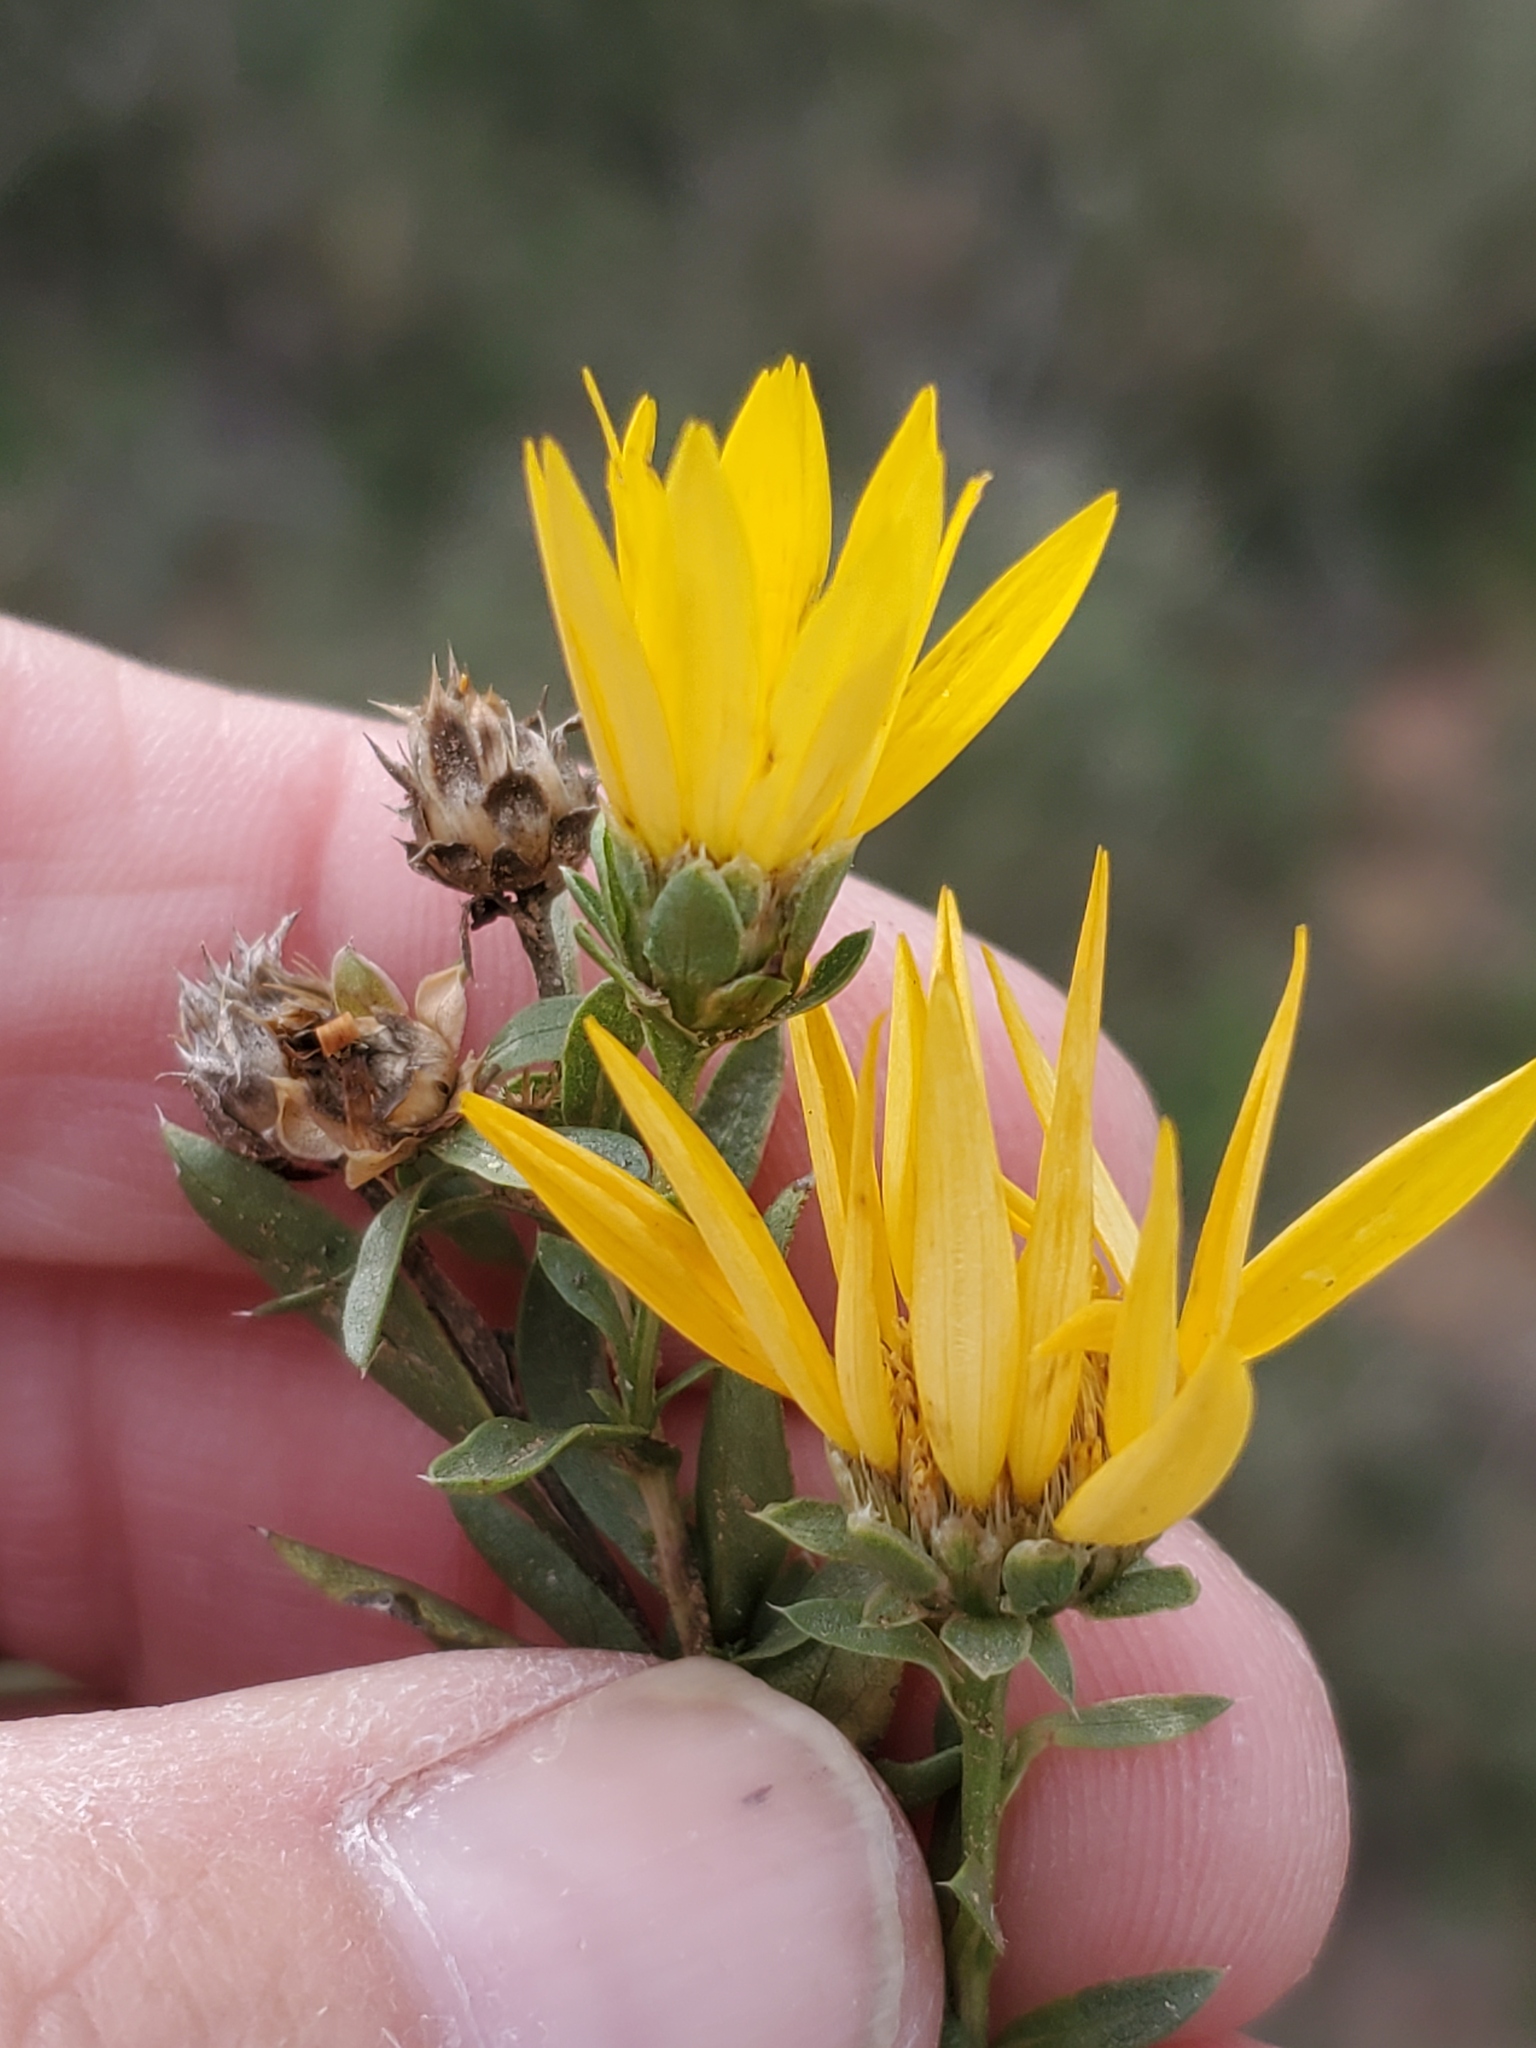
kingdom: Plantae
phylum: Tracheophyta
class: Magnoliopsida
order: Asterales
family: Asteraceae
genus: Xanthisma
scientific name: Xanthisma texanum
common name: Texas sleepy daisy
